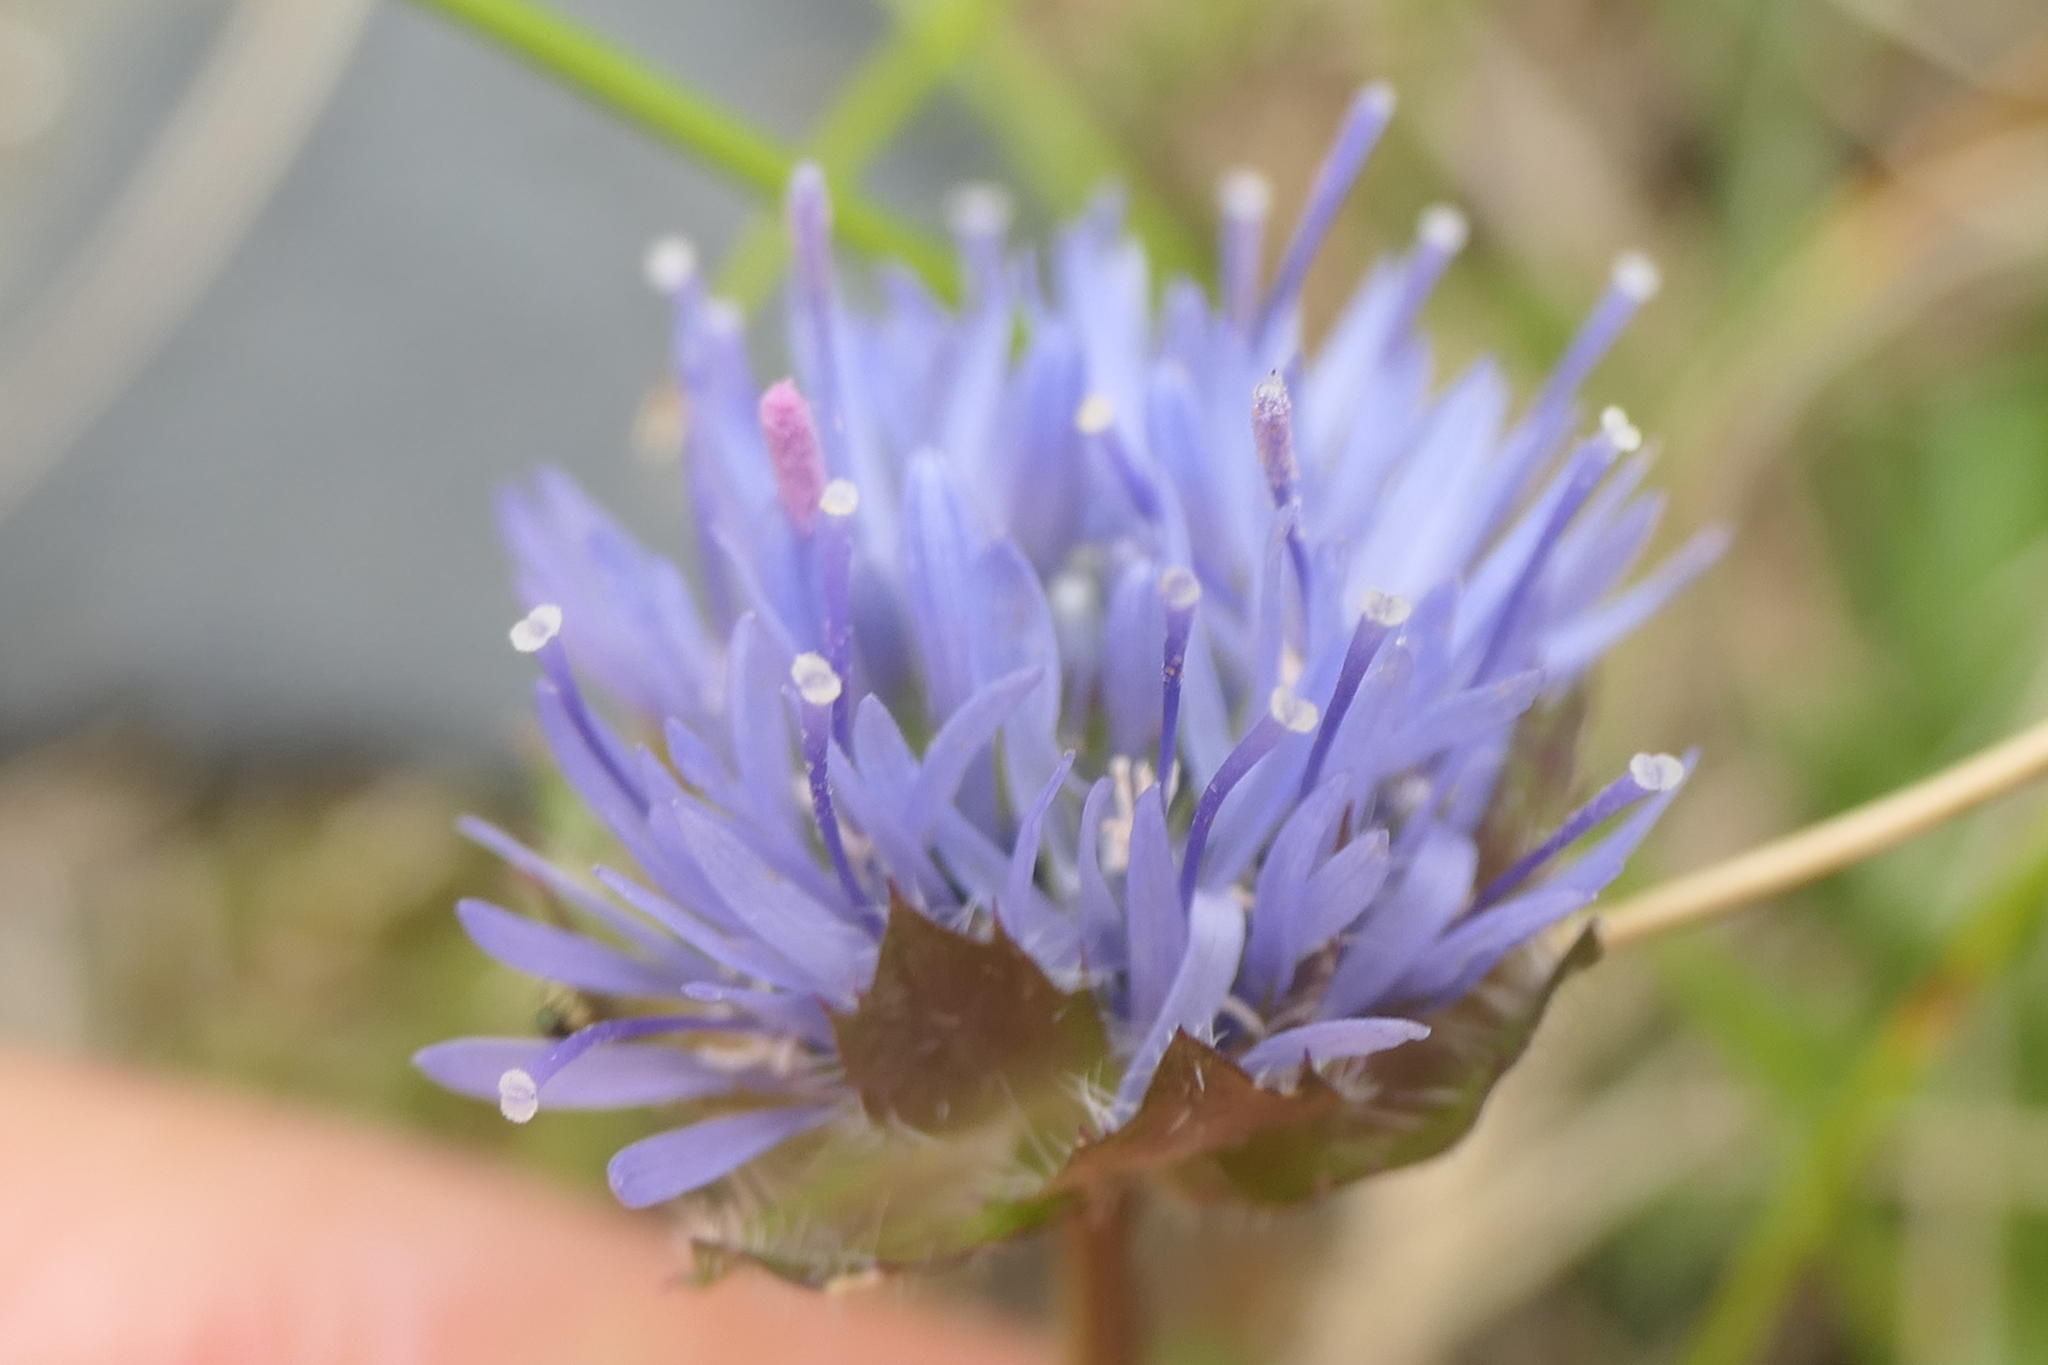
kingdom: Plantae
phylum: Tracheophyta
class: Magnoliopsida
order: Asterales
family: Campanulaceae
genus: Jasione
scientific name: Jasione laevis
